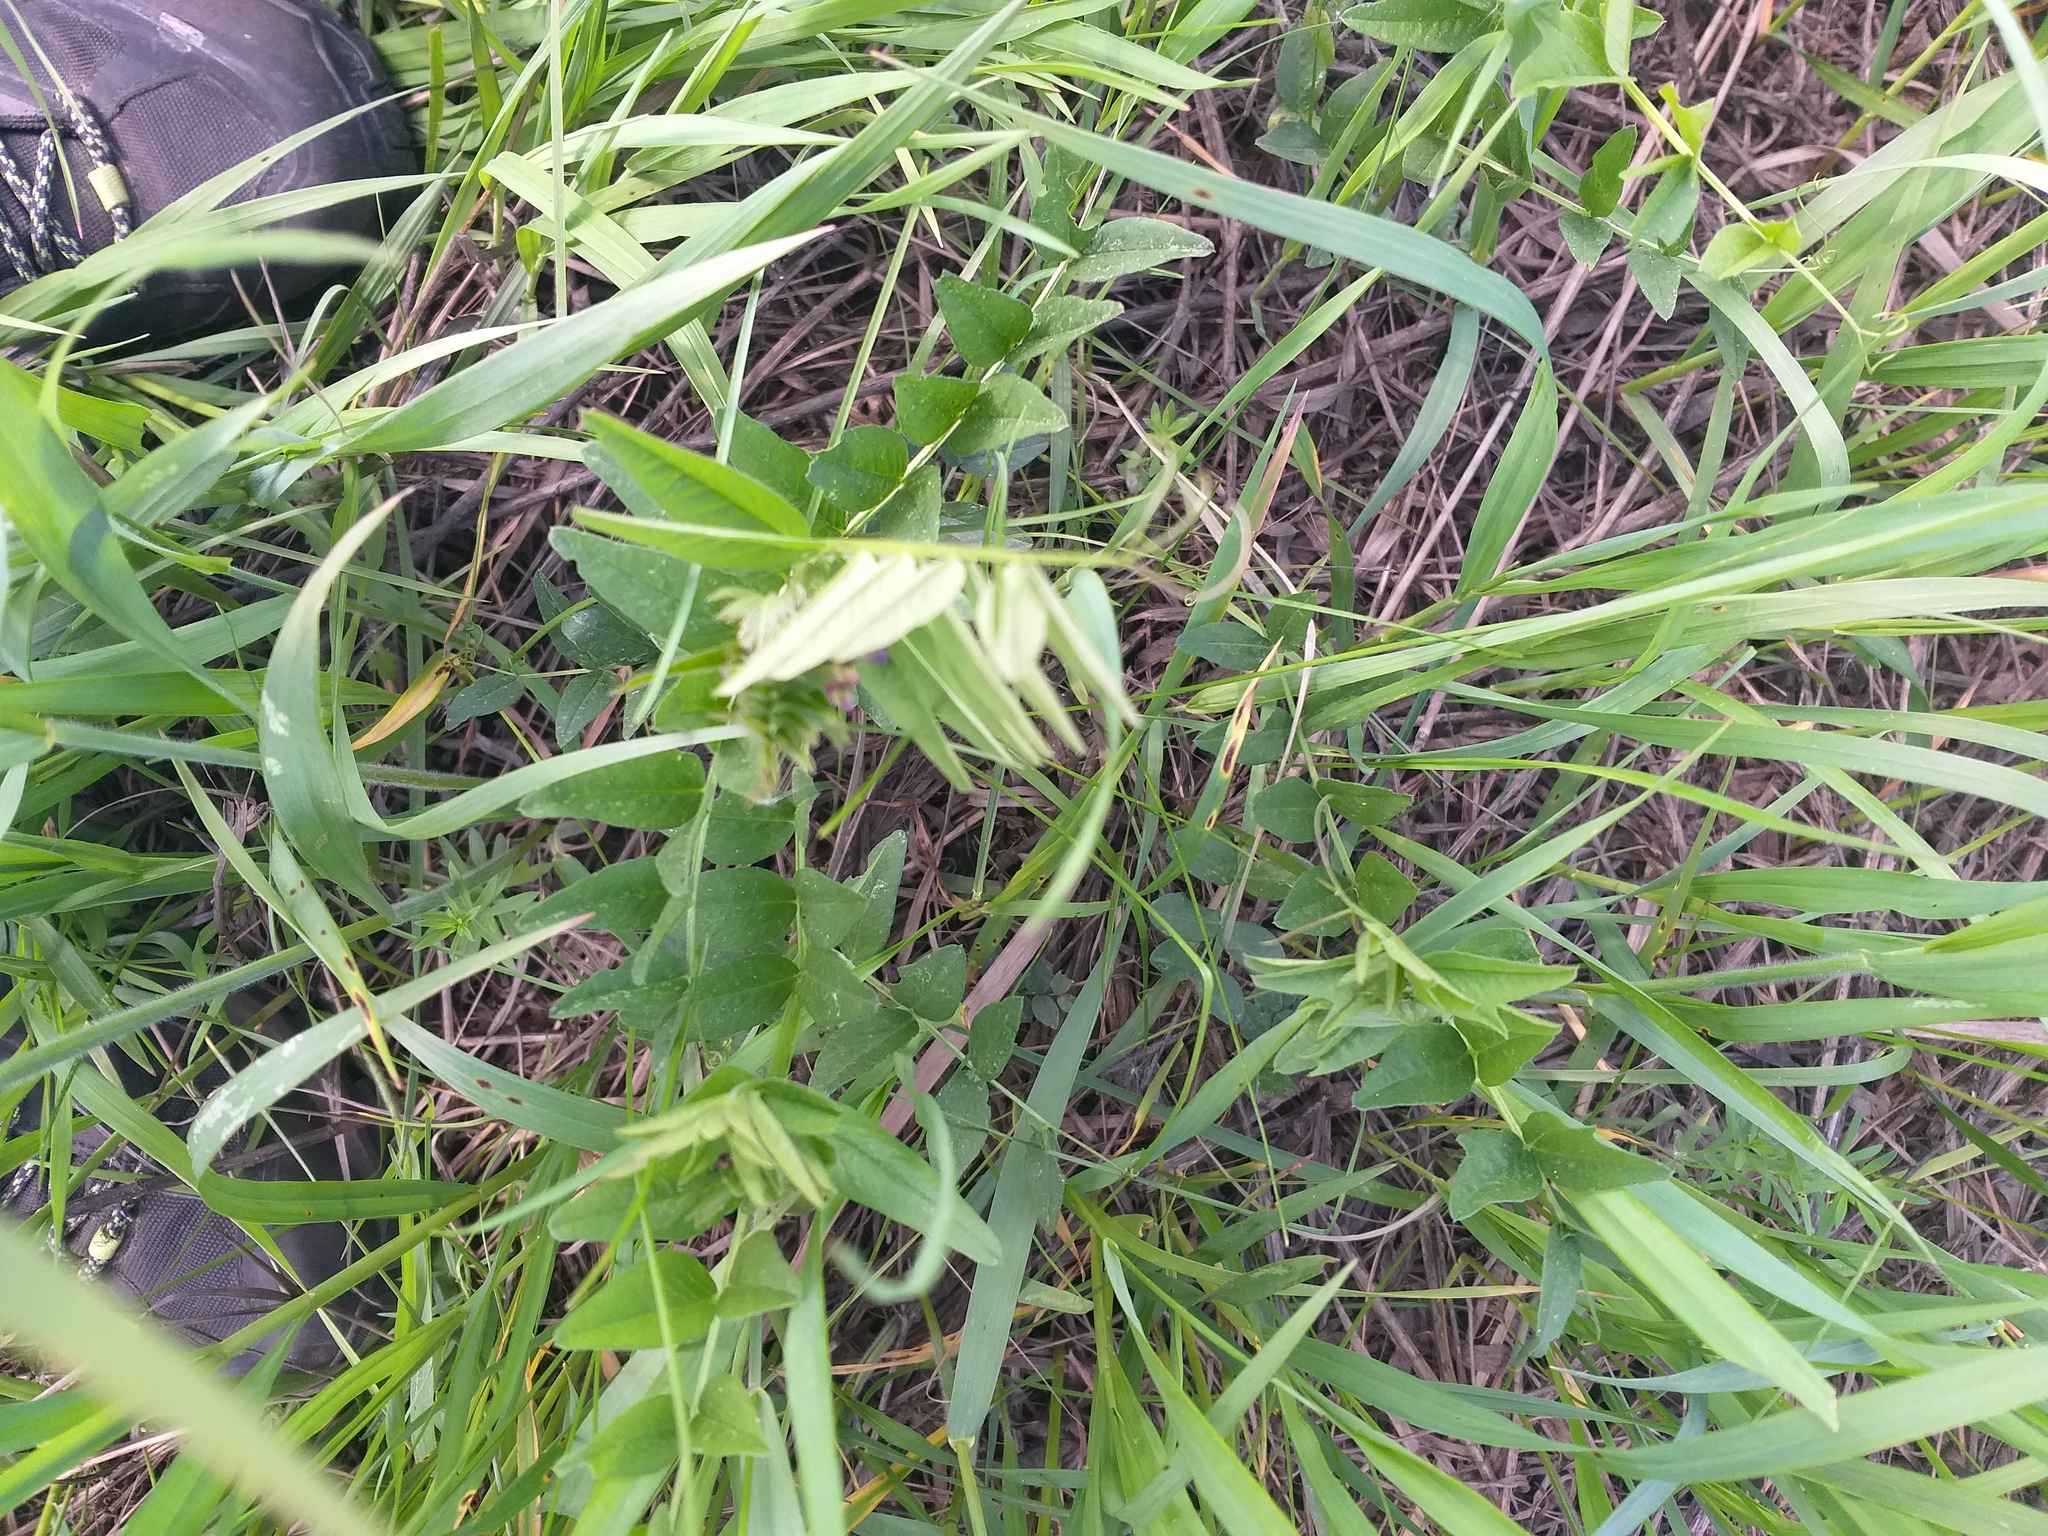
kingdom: Plantae
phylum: Tracheophyta
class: Magnoliopsida
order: Fabales
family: Fabaceae
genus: Vicia
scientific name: Vicia sepium
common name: Bush vetch
